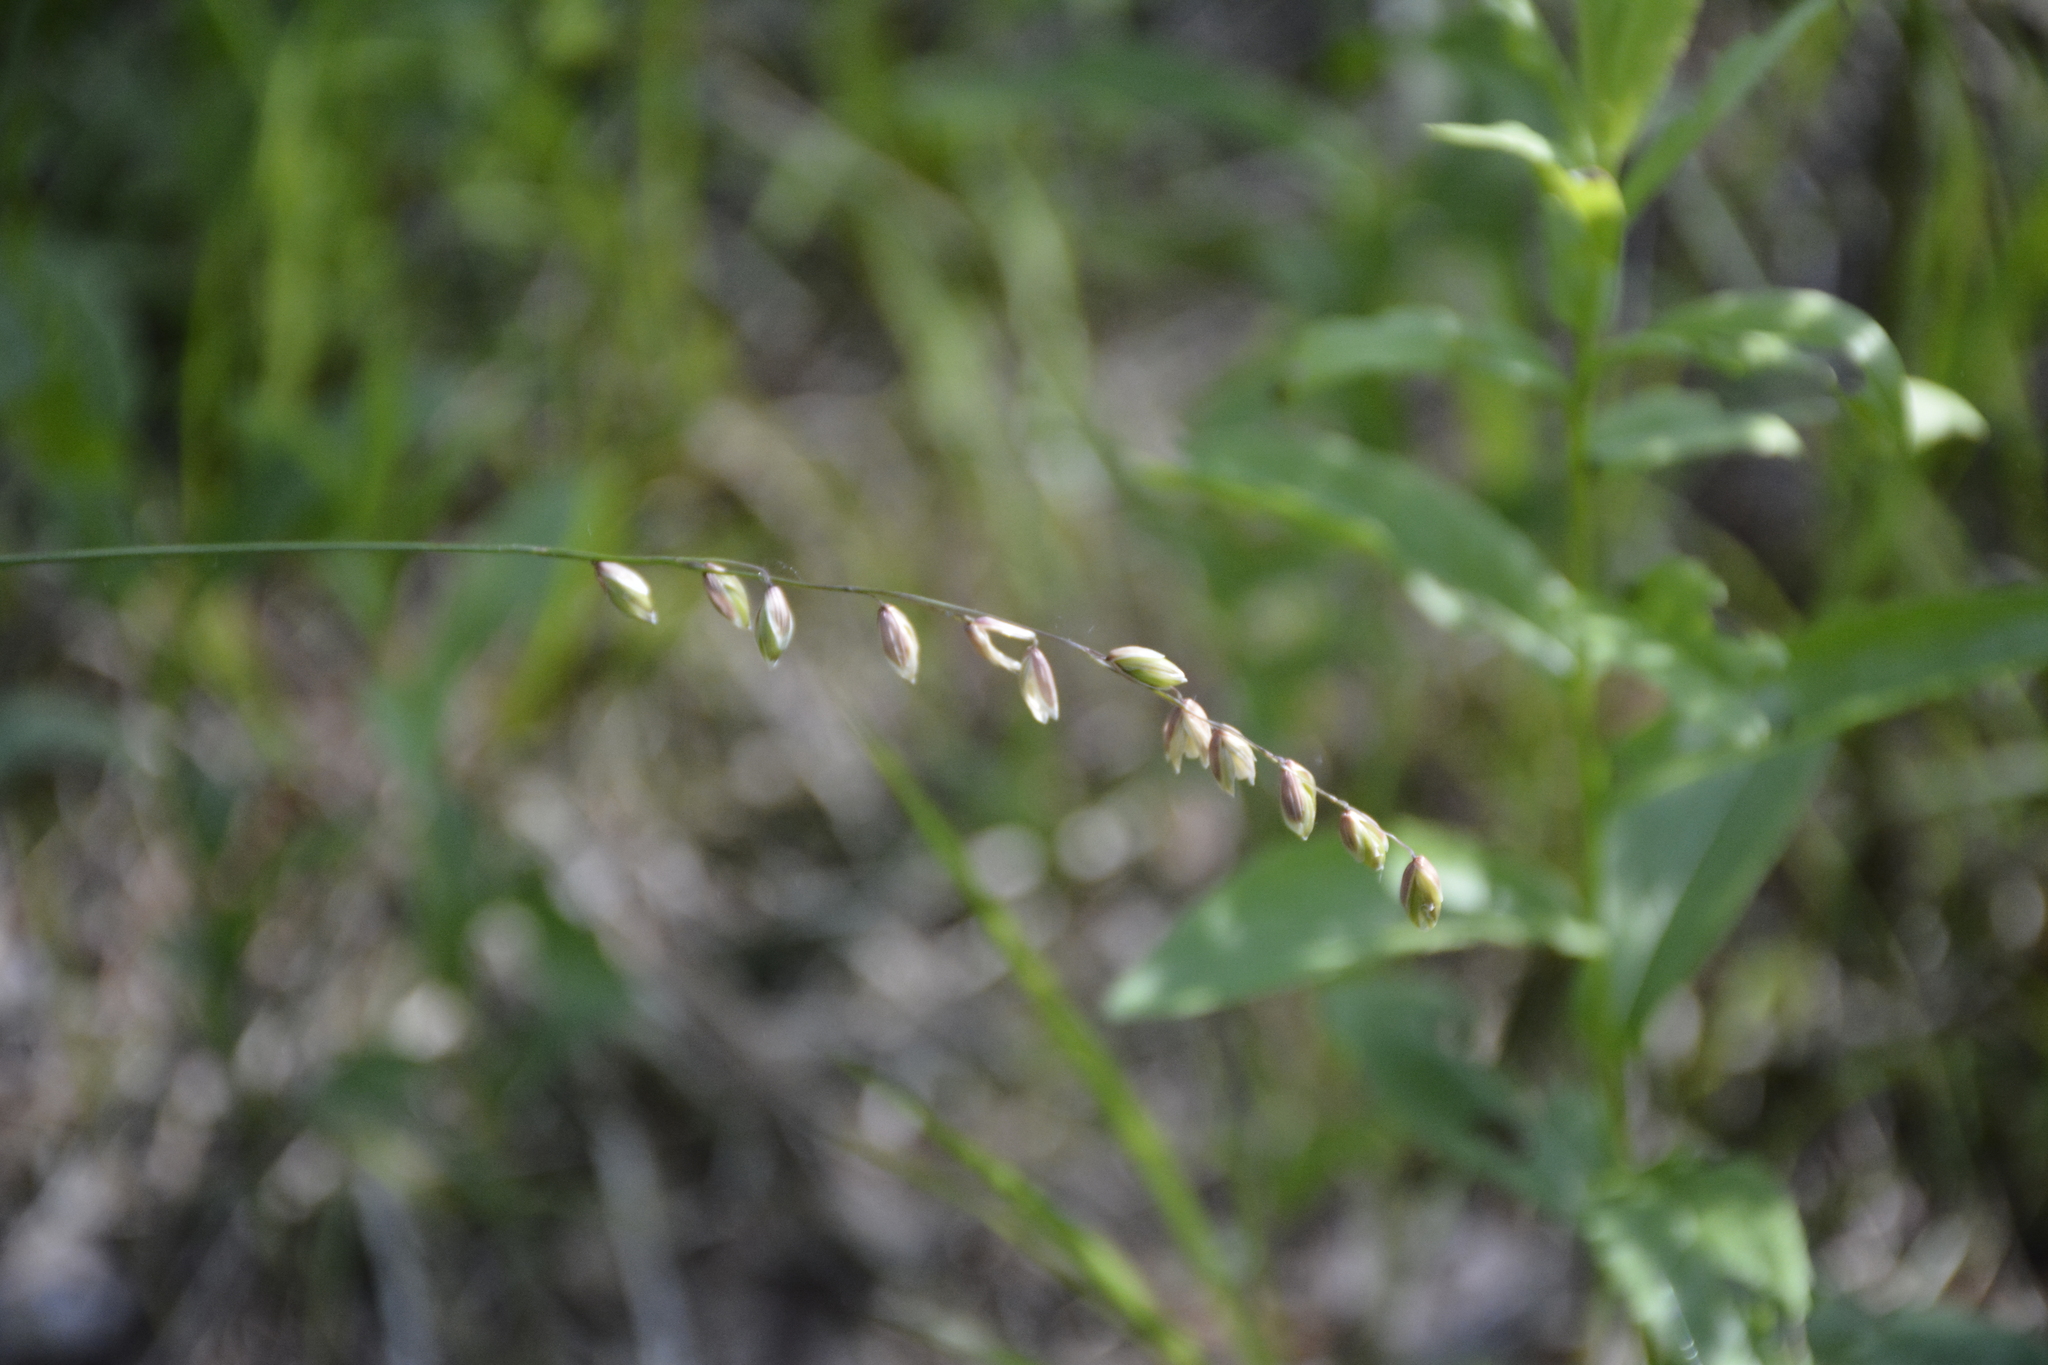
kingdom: Plantae
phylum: Tracheophyta
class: Liliopsida
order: Poales
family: Poaceae
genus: Melica
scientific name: Melica nutans
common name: Mountain melick
